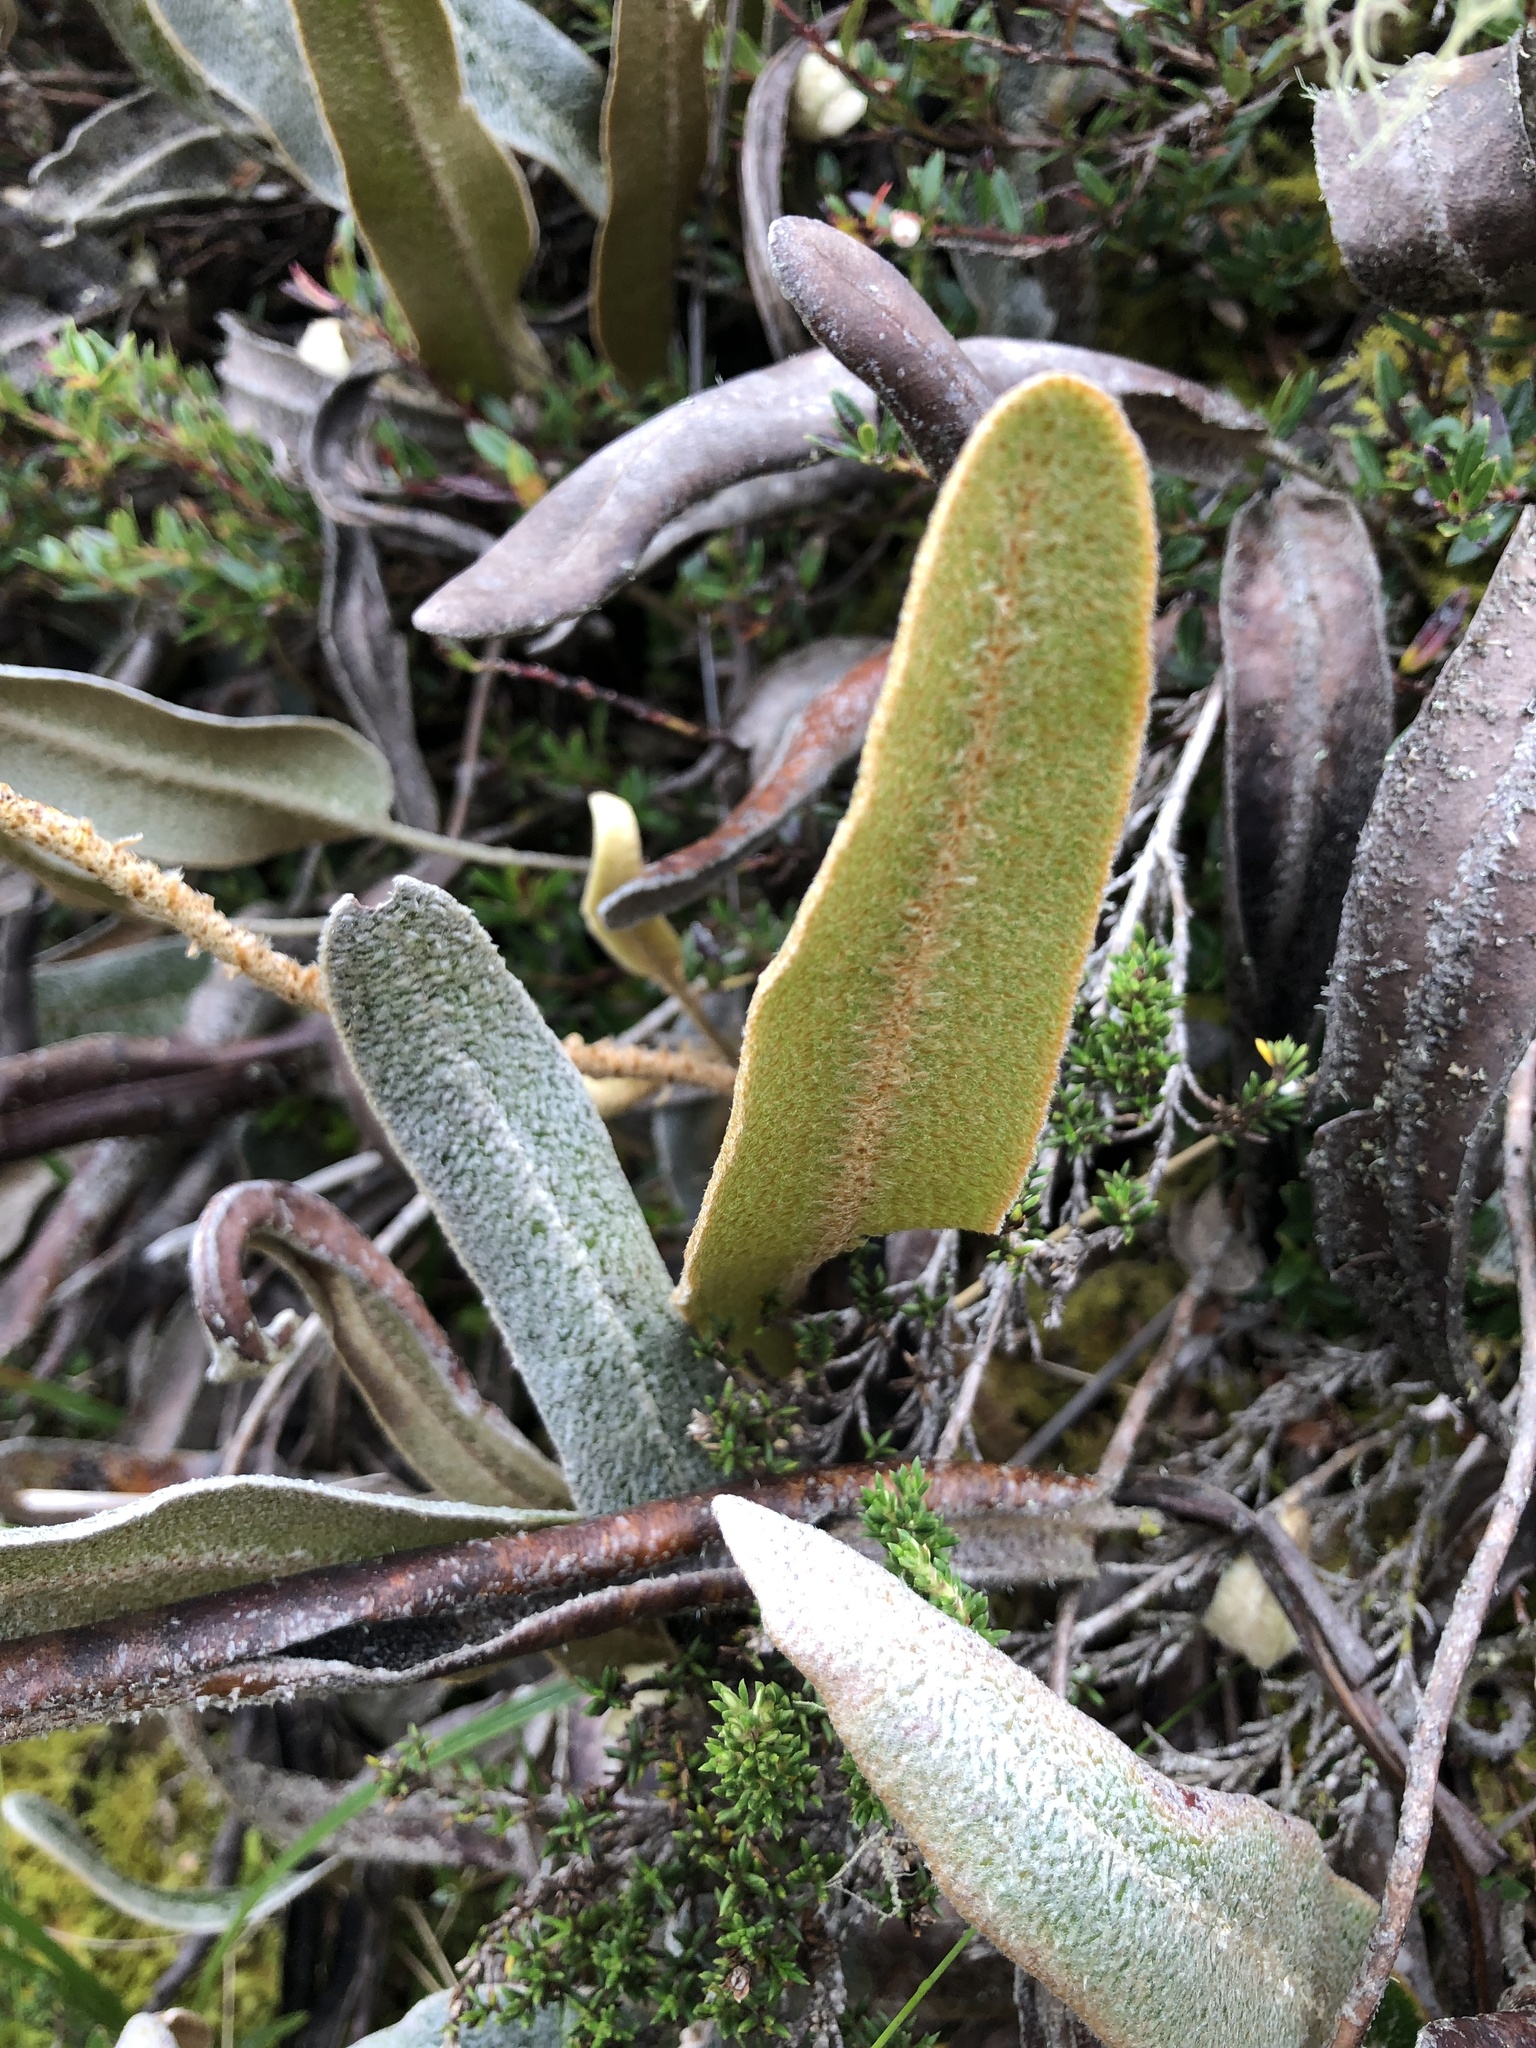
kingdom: Plantae
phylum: Tracheophyta
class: Polypodiopsida
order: Polypodiales
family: Dryopteridaceae
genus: Elaphoglossum
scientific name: Elaphoglossum engelii
